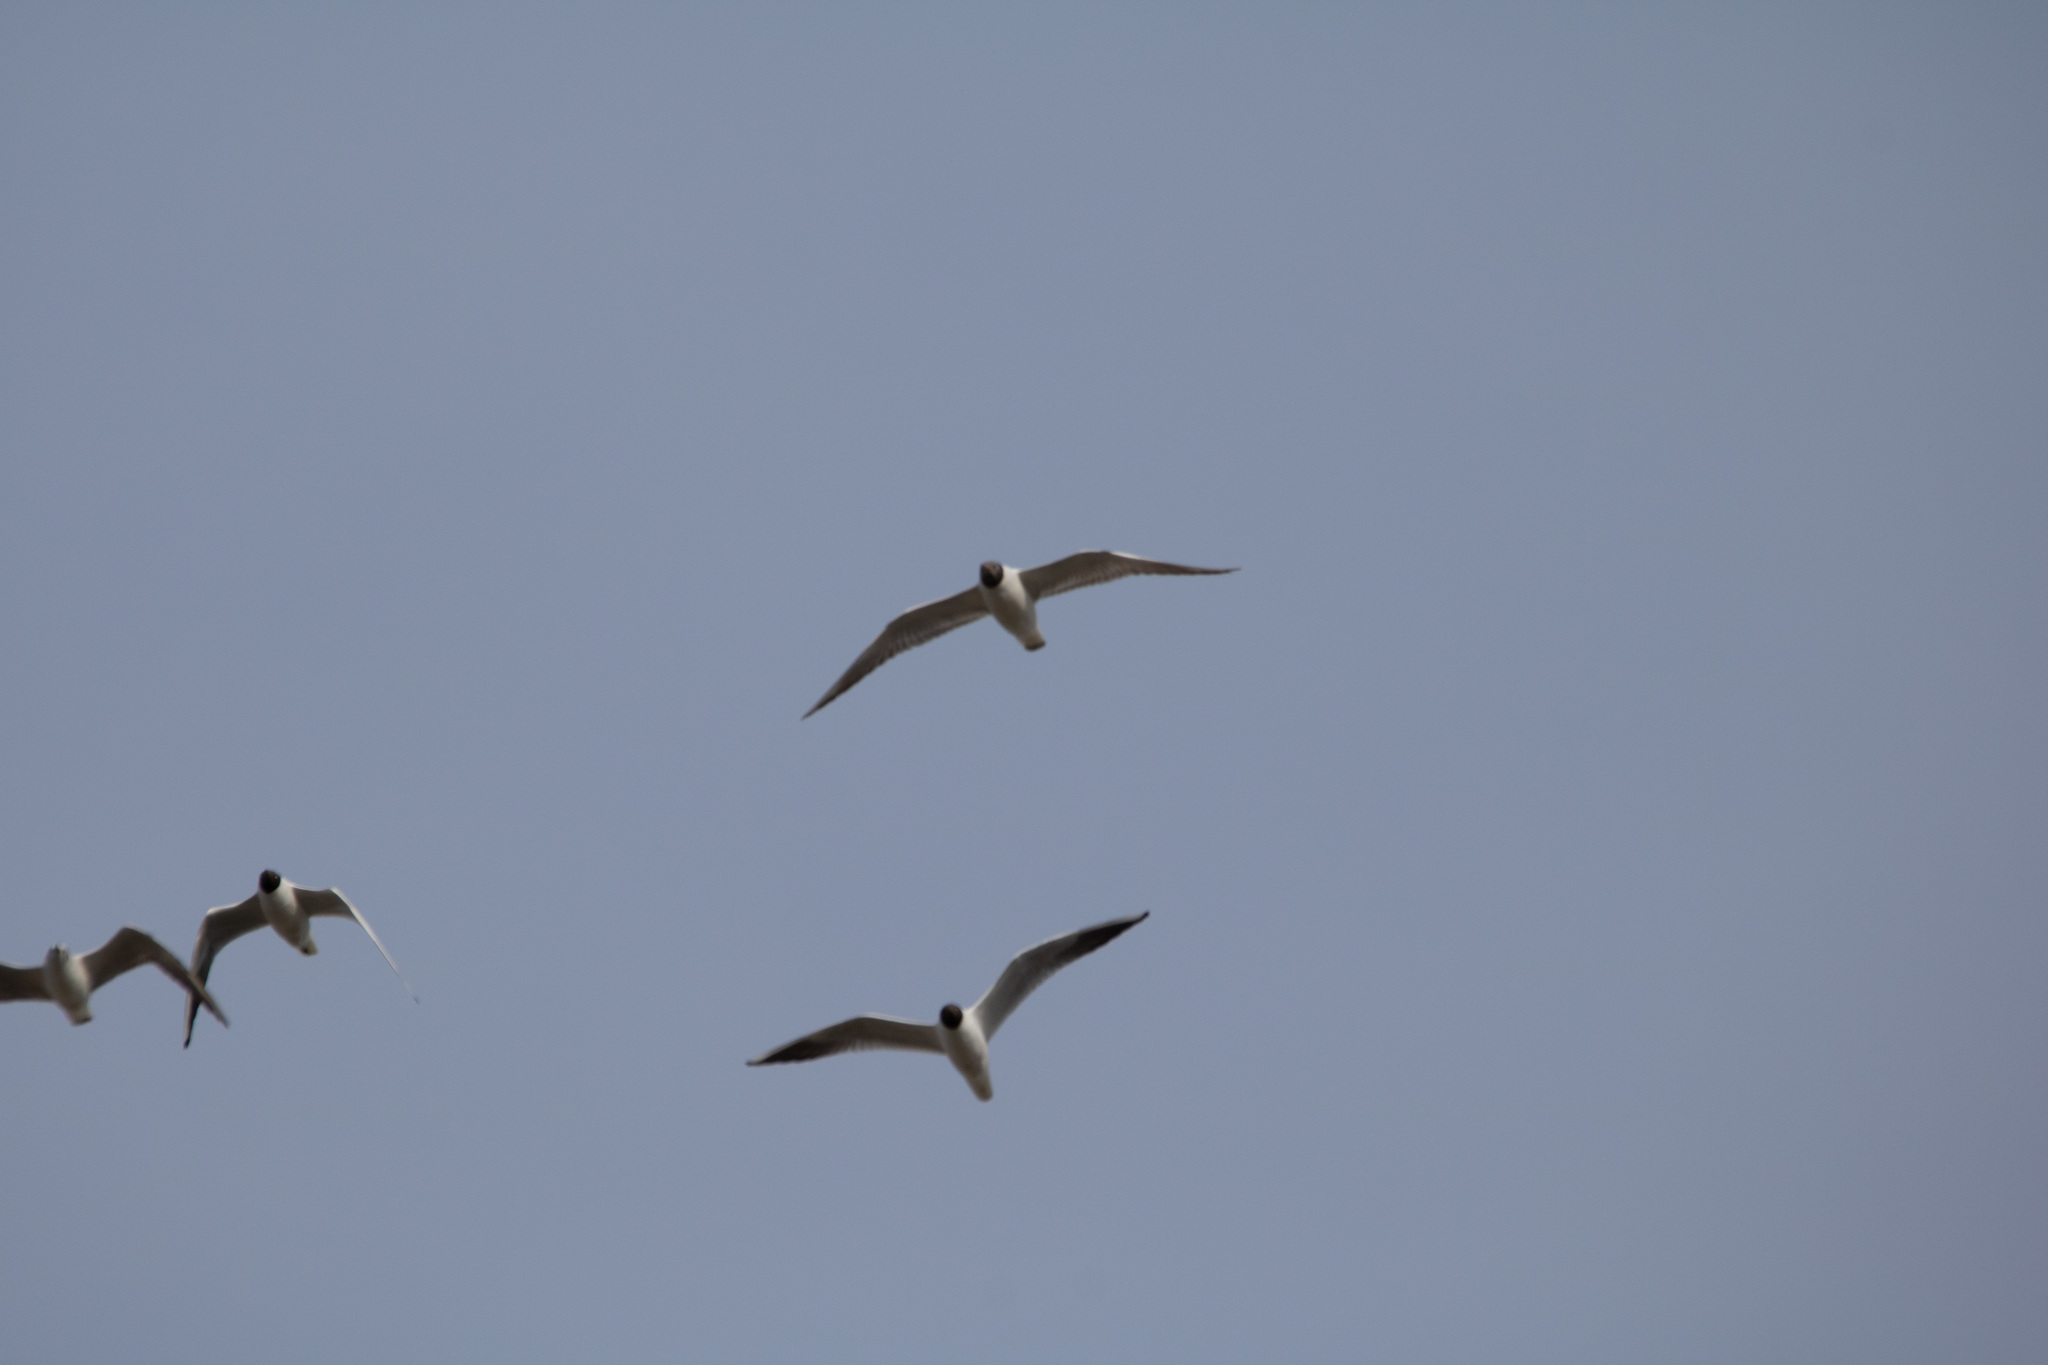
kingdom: Animalia
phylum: Chordata
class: Aves
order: Charadriiformes
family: Laridae
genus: Chroicocephalus
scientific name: Chroicocephalus ridibundus
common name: Black-headed gull
